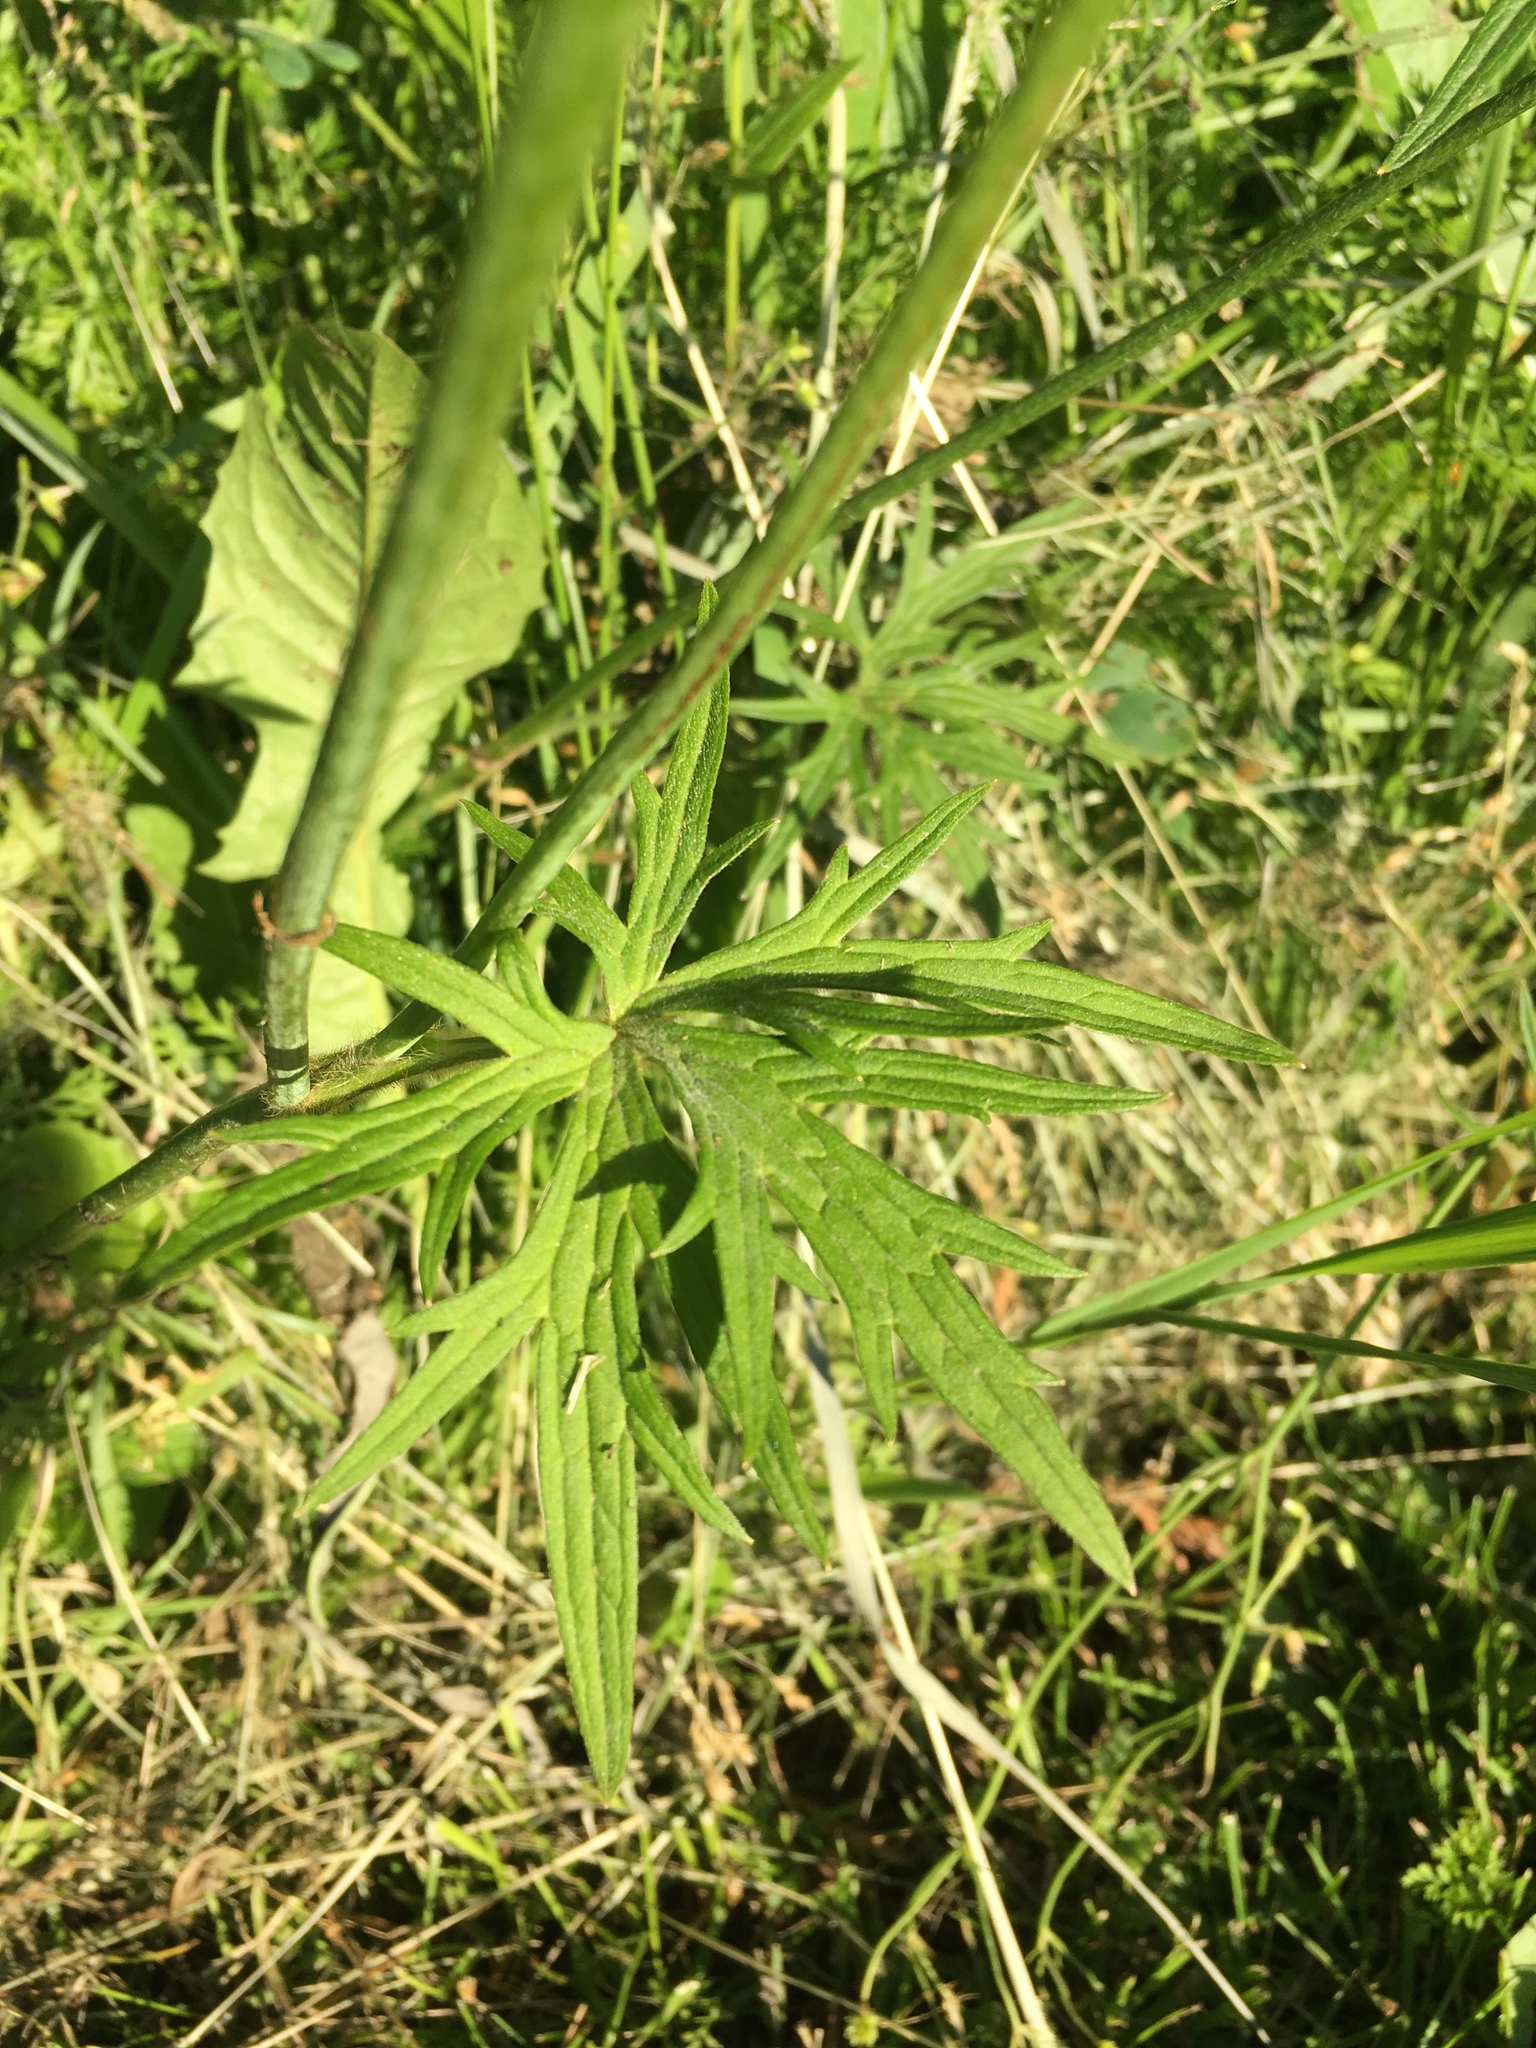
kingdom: Plantae
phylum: Tracheophyta
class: Magnoliopsida
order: Ranunculales
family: Ranunculaceae
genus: Ranunculus
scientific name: Ranunculus acris
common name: Meadow buttercup
